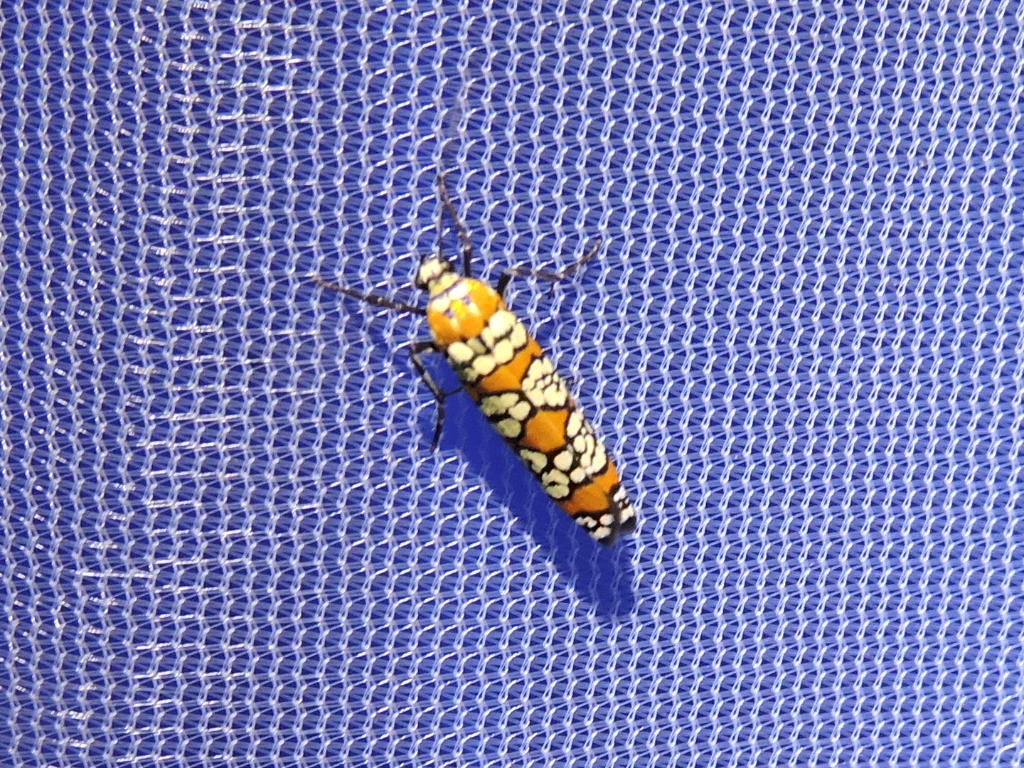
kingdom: Animalia
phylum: Arthropoda
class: Insecta
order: Lepidoptera
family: Attevidae
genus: Atteva
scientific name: Atteva punctella
